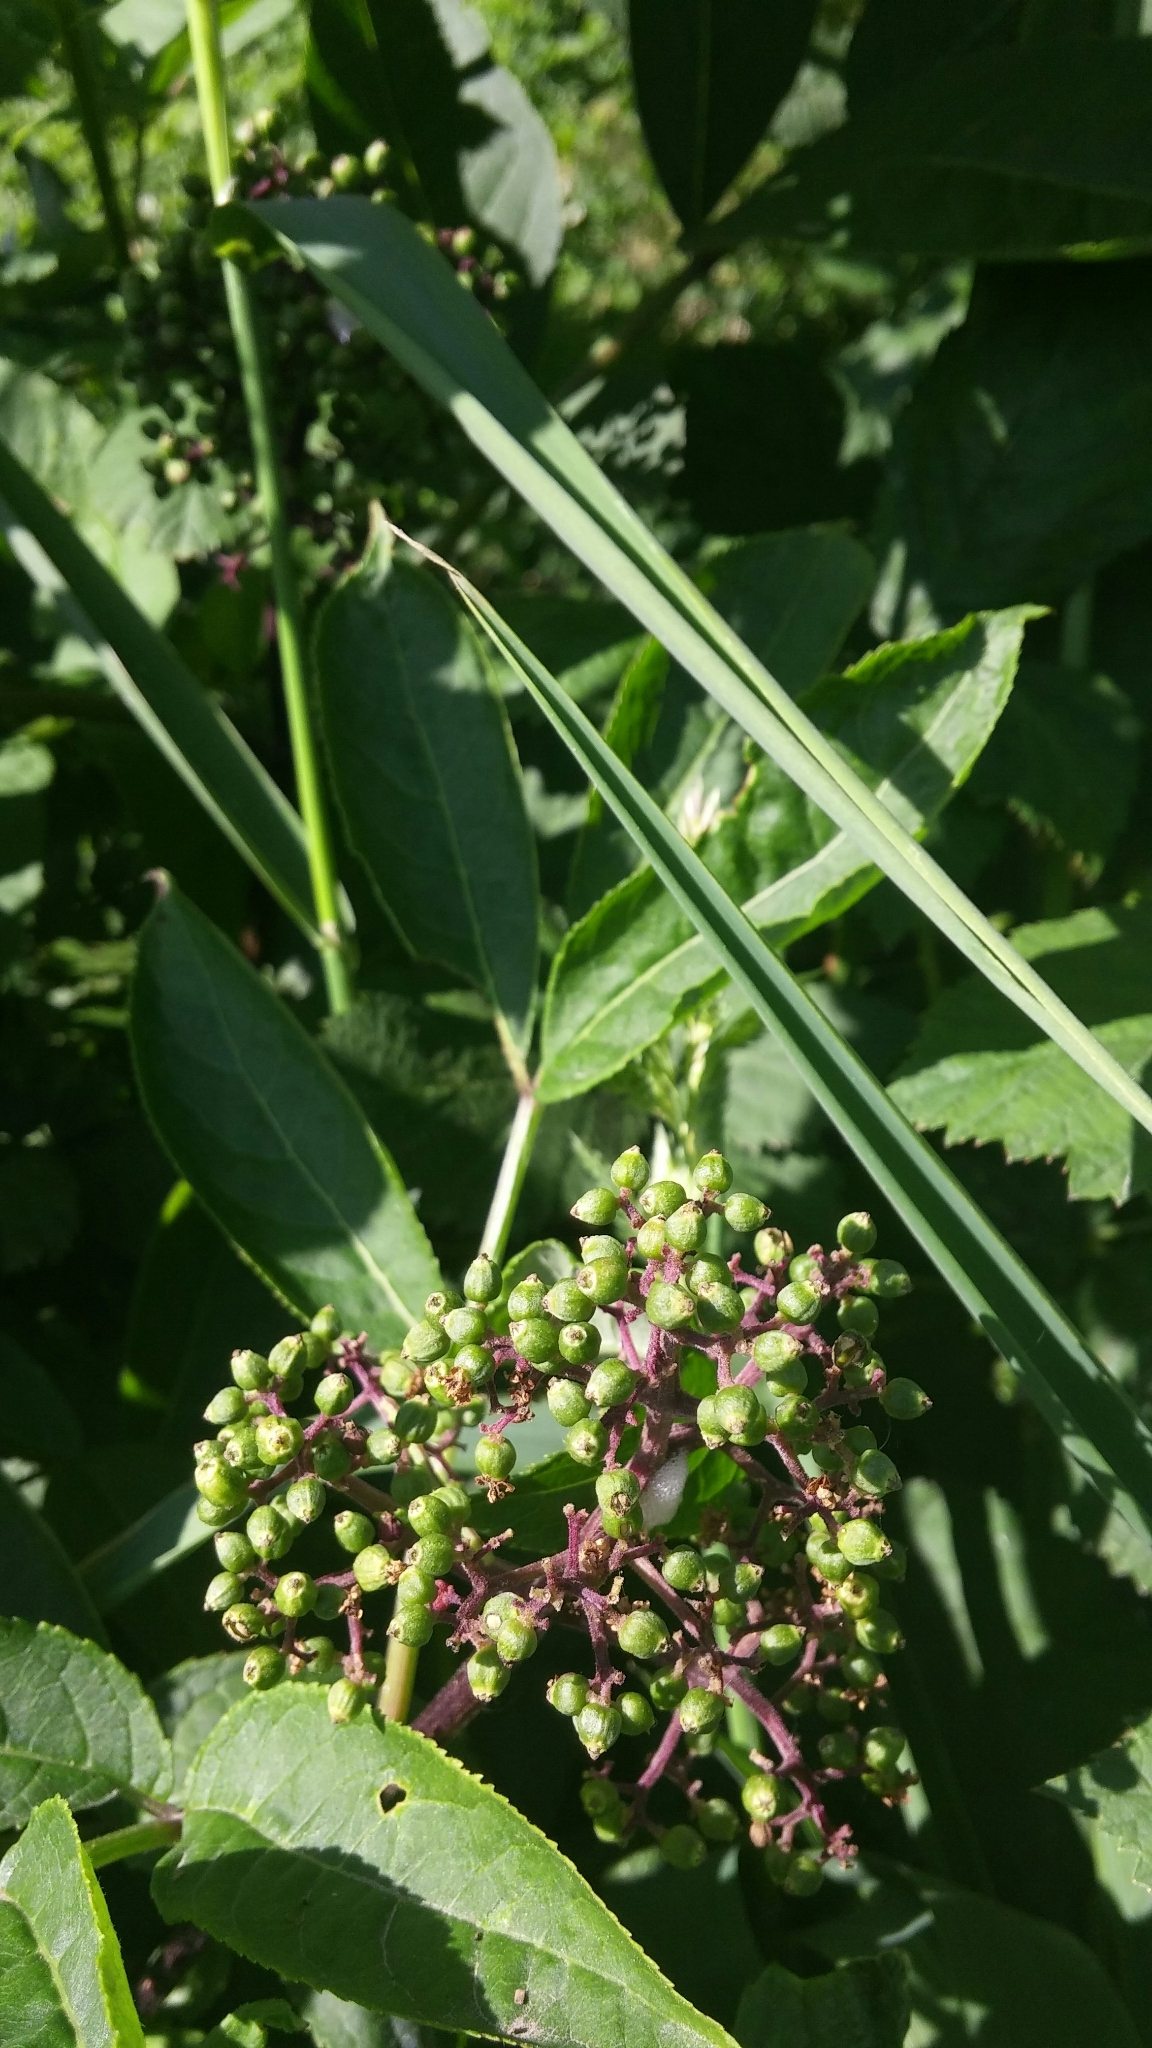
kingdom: Plantae
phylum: Tracheophyta
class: Magnoliopsida
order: Dipsacales
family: Viburnaceae
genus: Sambucus
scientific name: Sambucus racemosa
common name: Red-berried elder
